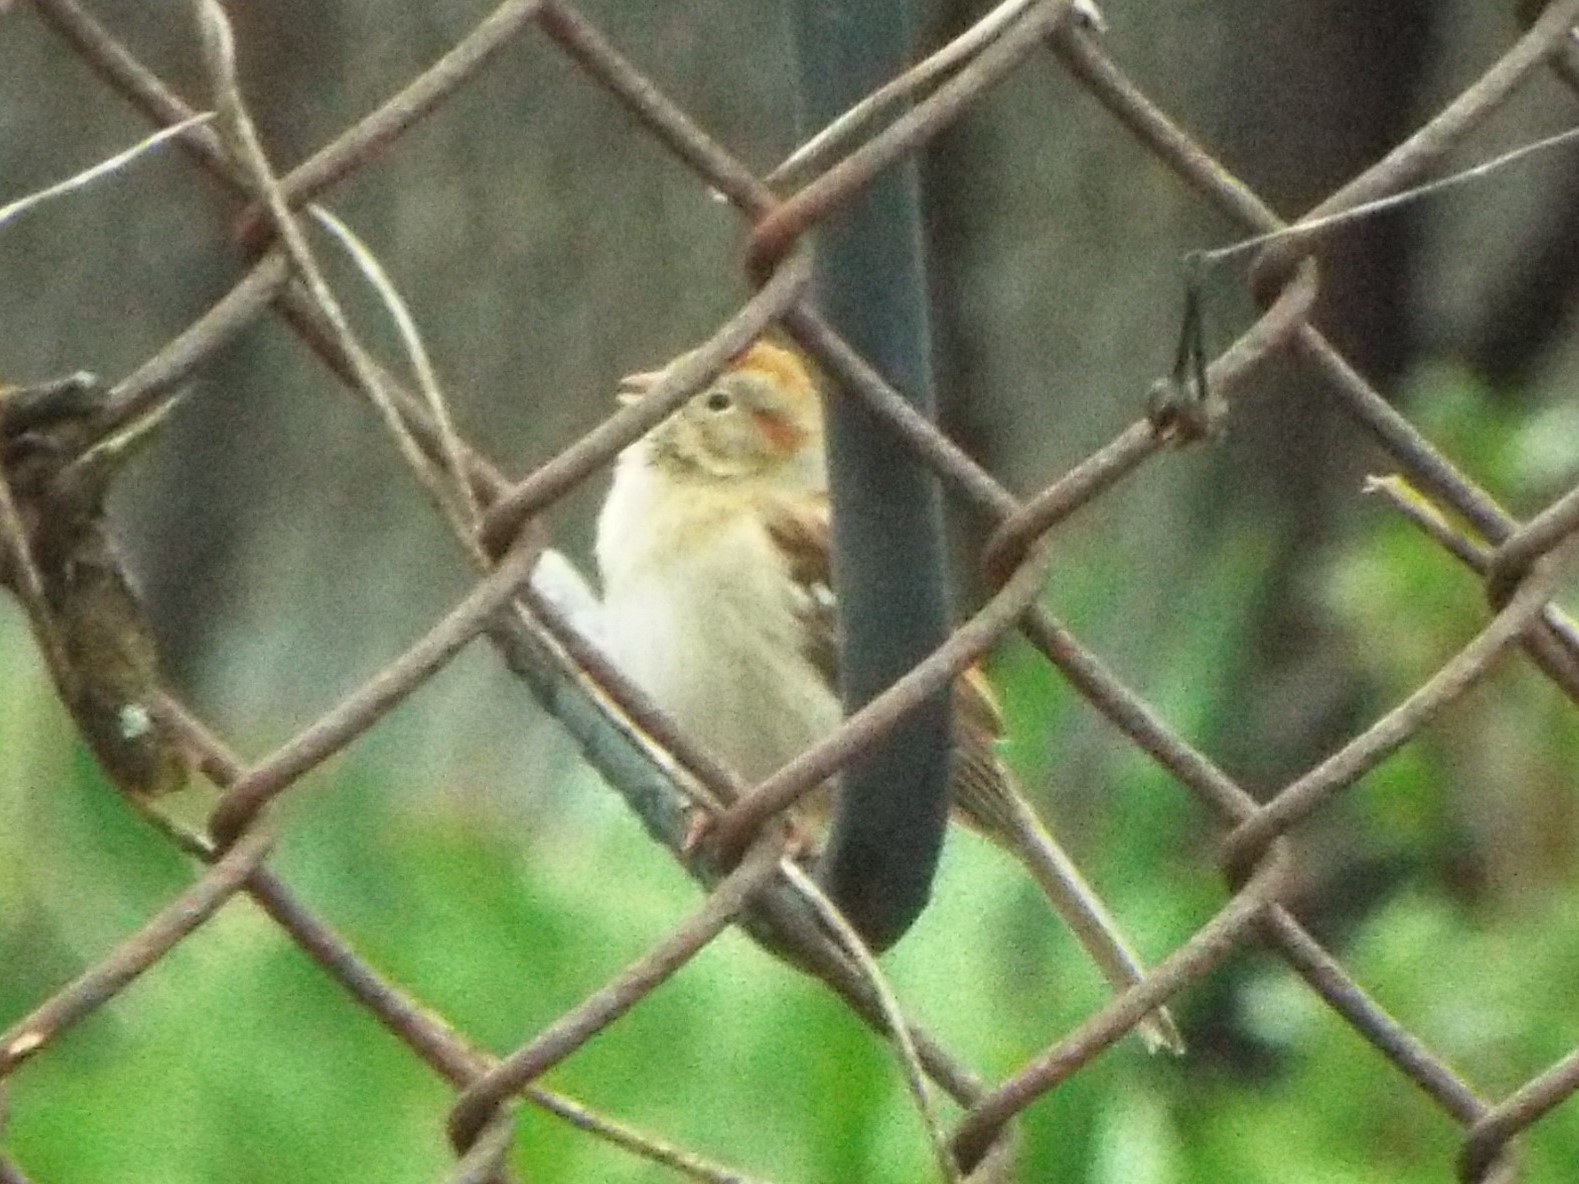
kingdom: Animalia
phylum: Chordata
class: Aves
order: Passeriformes
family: Passerellidae
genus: Spizella
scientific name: Spizella pusilla
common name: Field sparrow
